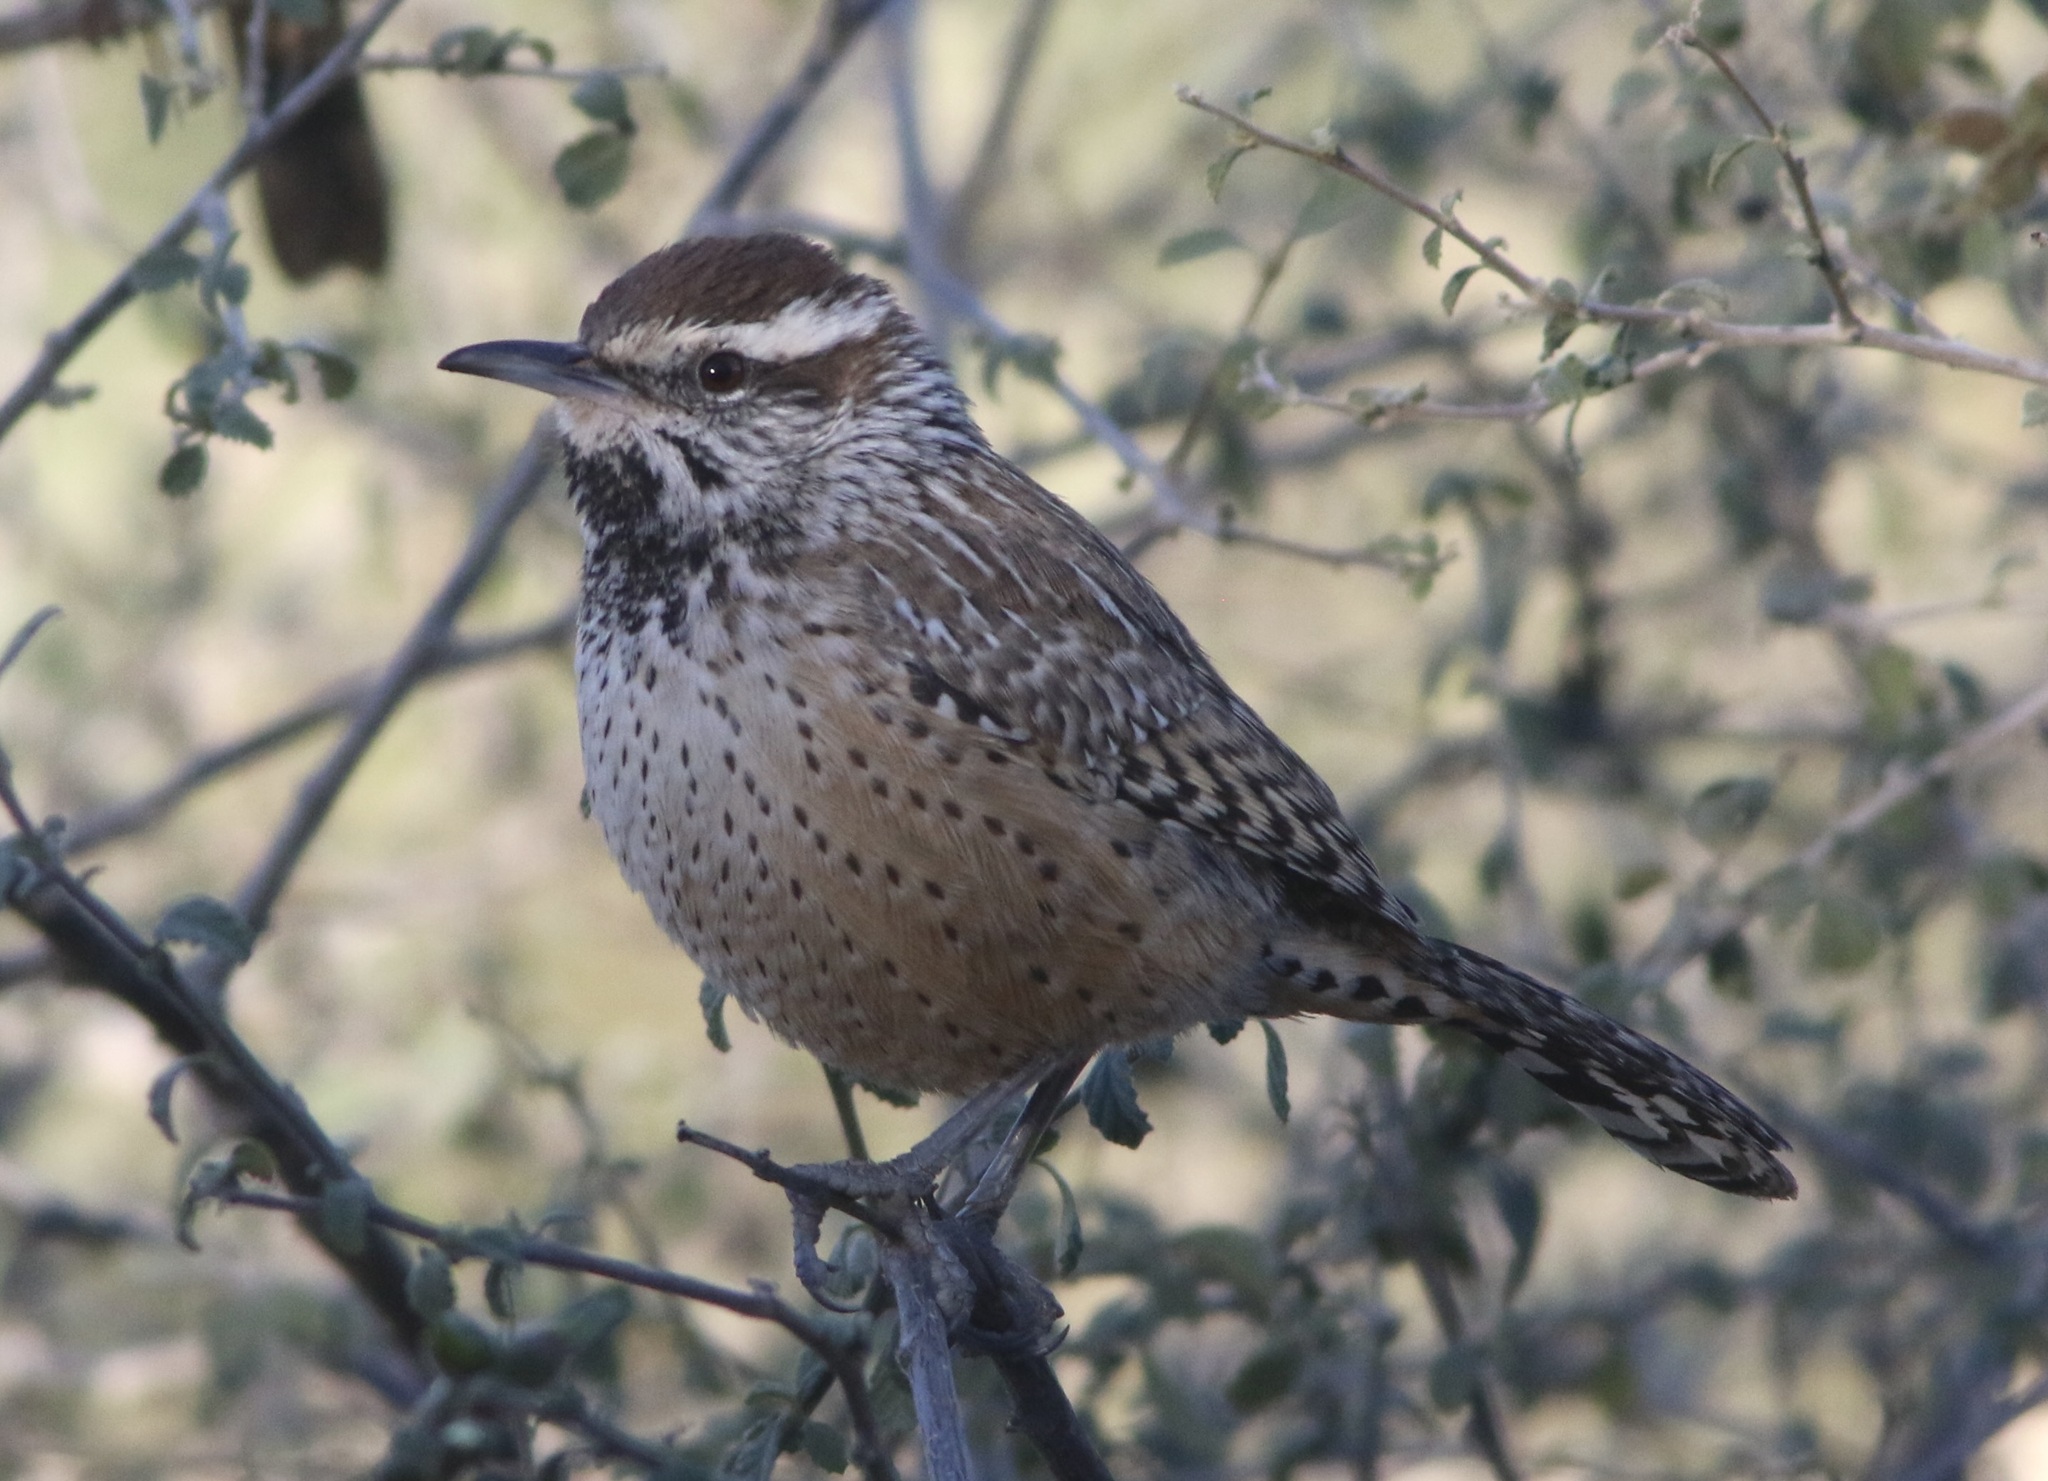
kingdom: Animalia
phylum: Chordata
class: Aves
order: Passeriformes
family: Troglodytidae
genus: Campylorhynchus
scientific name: Campylorhynchus brunneicapillus
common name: Cactus wren
